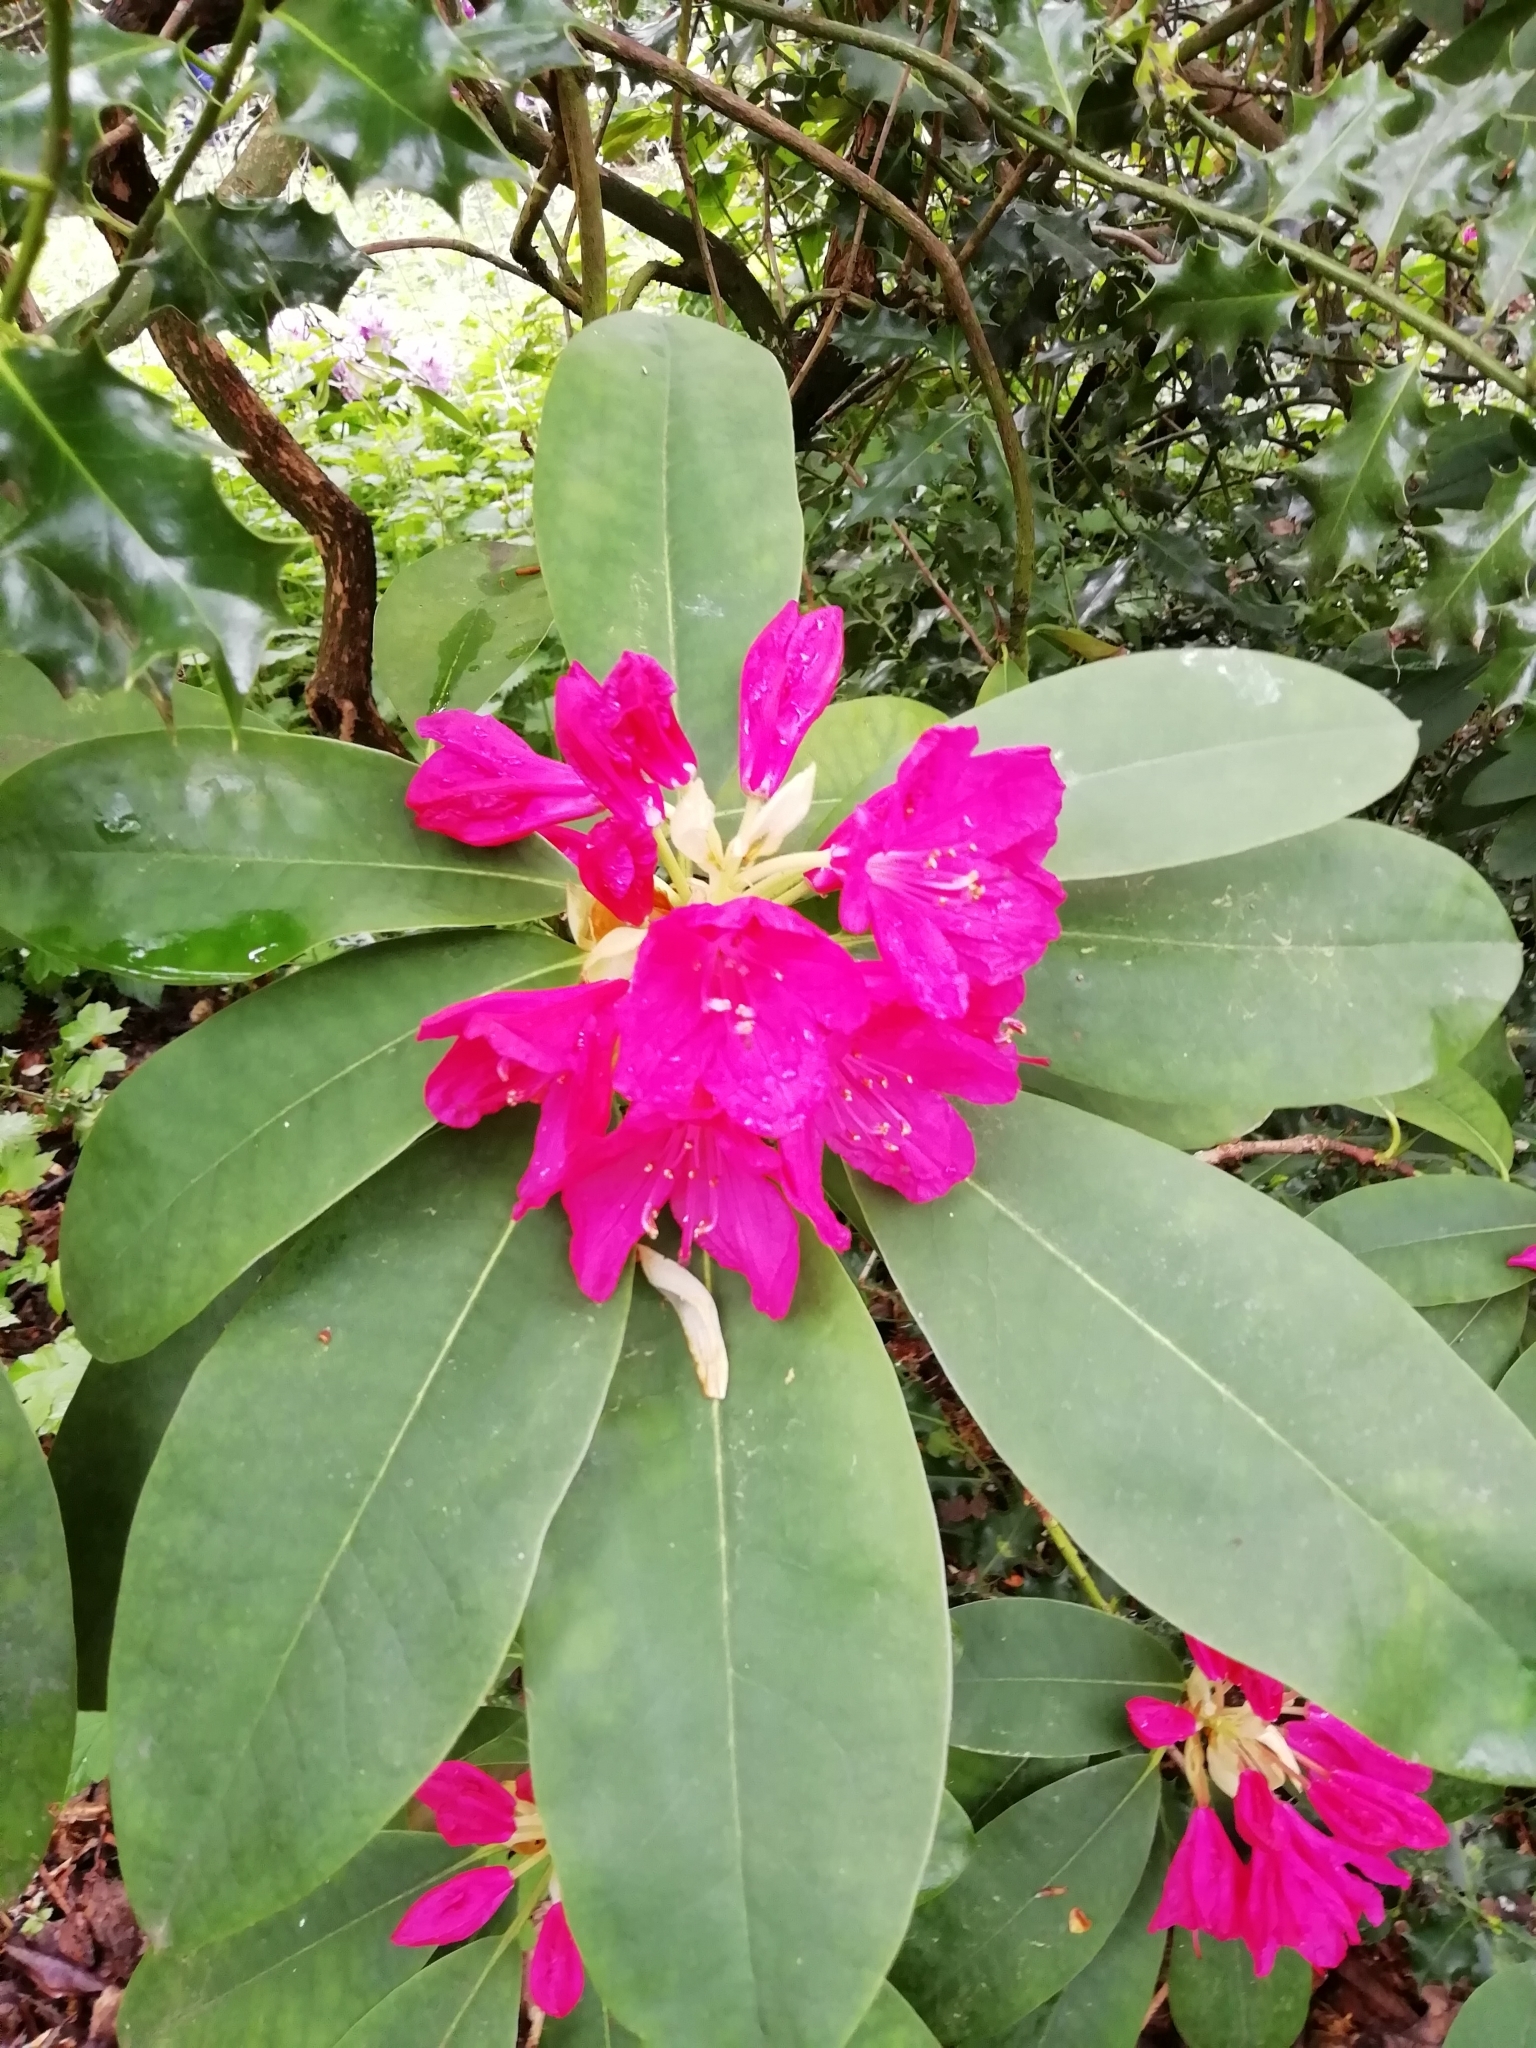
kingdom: Plantae
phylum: Tracheophyta
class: Magnoliopsida
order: Ericales
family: Ericaceae
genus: Rhododendron
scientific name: Rhododendron ponticum
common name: Rhododendron
